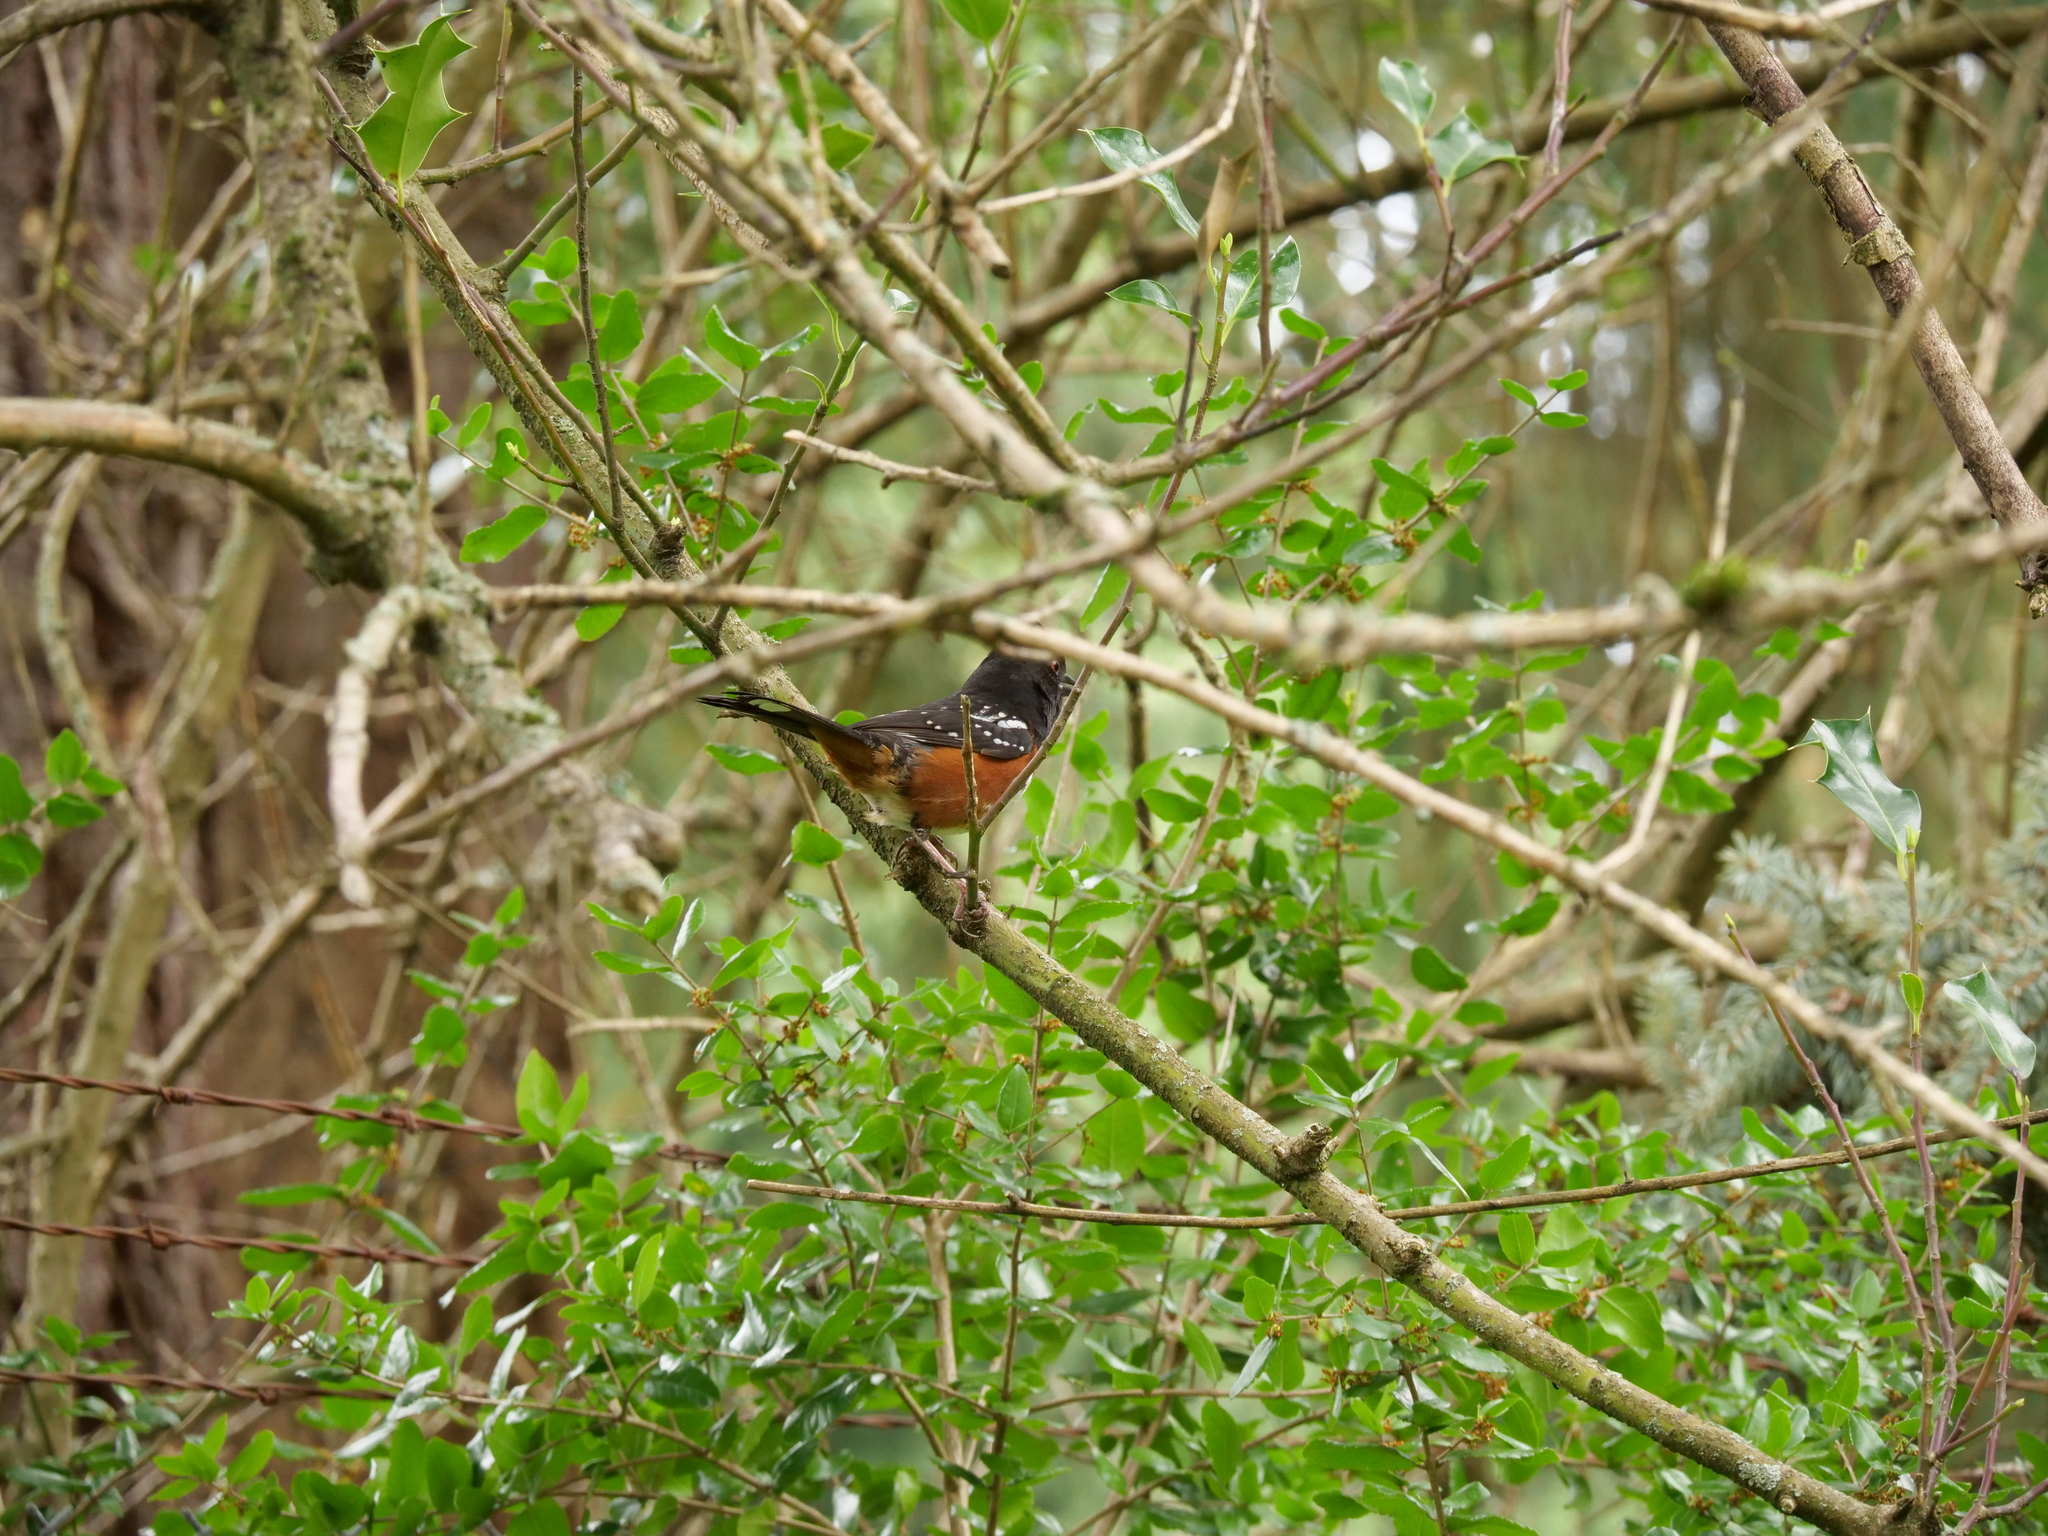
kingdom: Animalia
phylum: Chordata
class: Aves
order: Passeriformes
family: Passerellidae
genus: Pipilo
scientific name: Pipilo maculatus
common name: Spotted towhee
